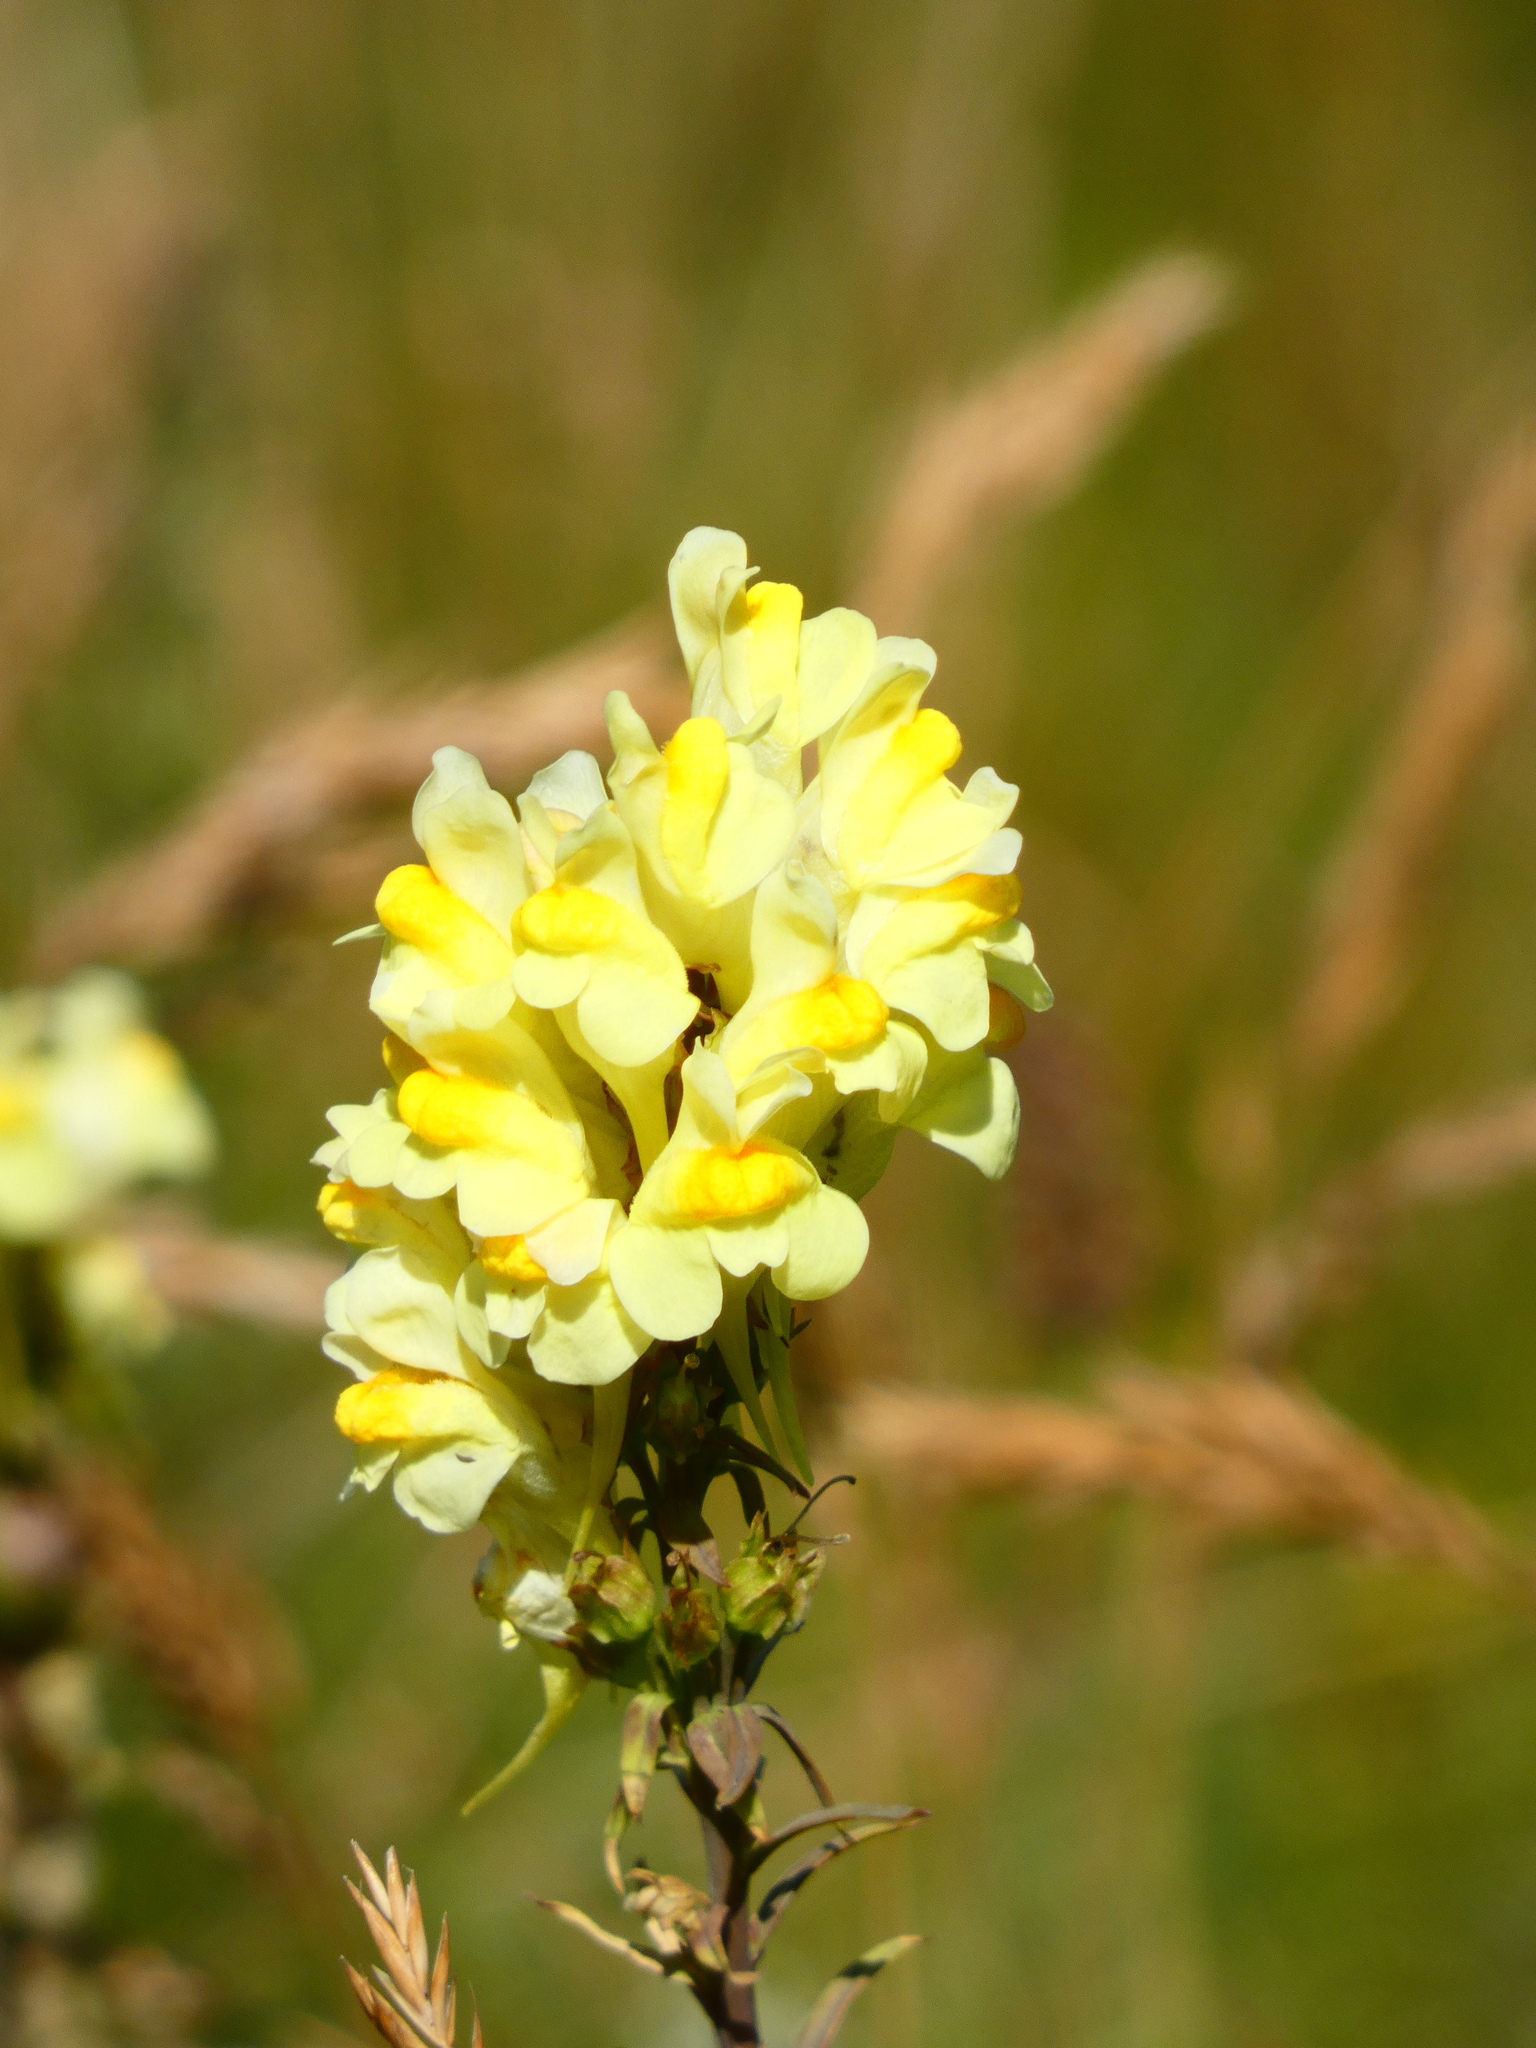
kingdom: Plantae
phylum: Tracheophyta
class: Magnoliopsida
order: Lamiales
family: Plantaginaceae
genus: Linaria
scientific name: Linaria vulgaris
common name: Butter and eggs
